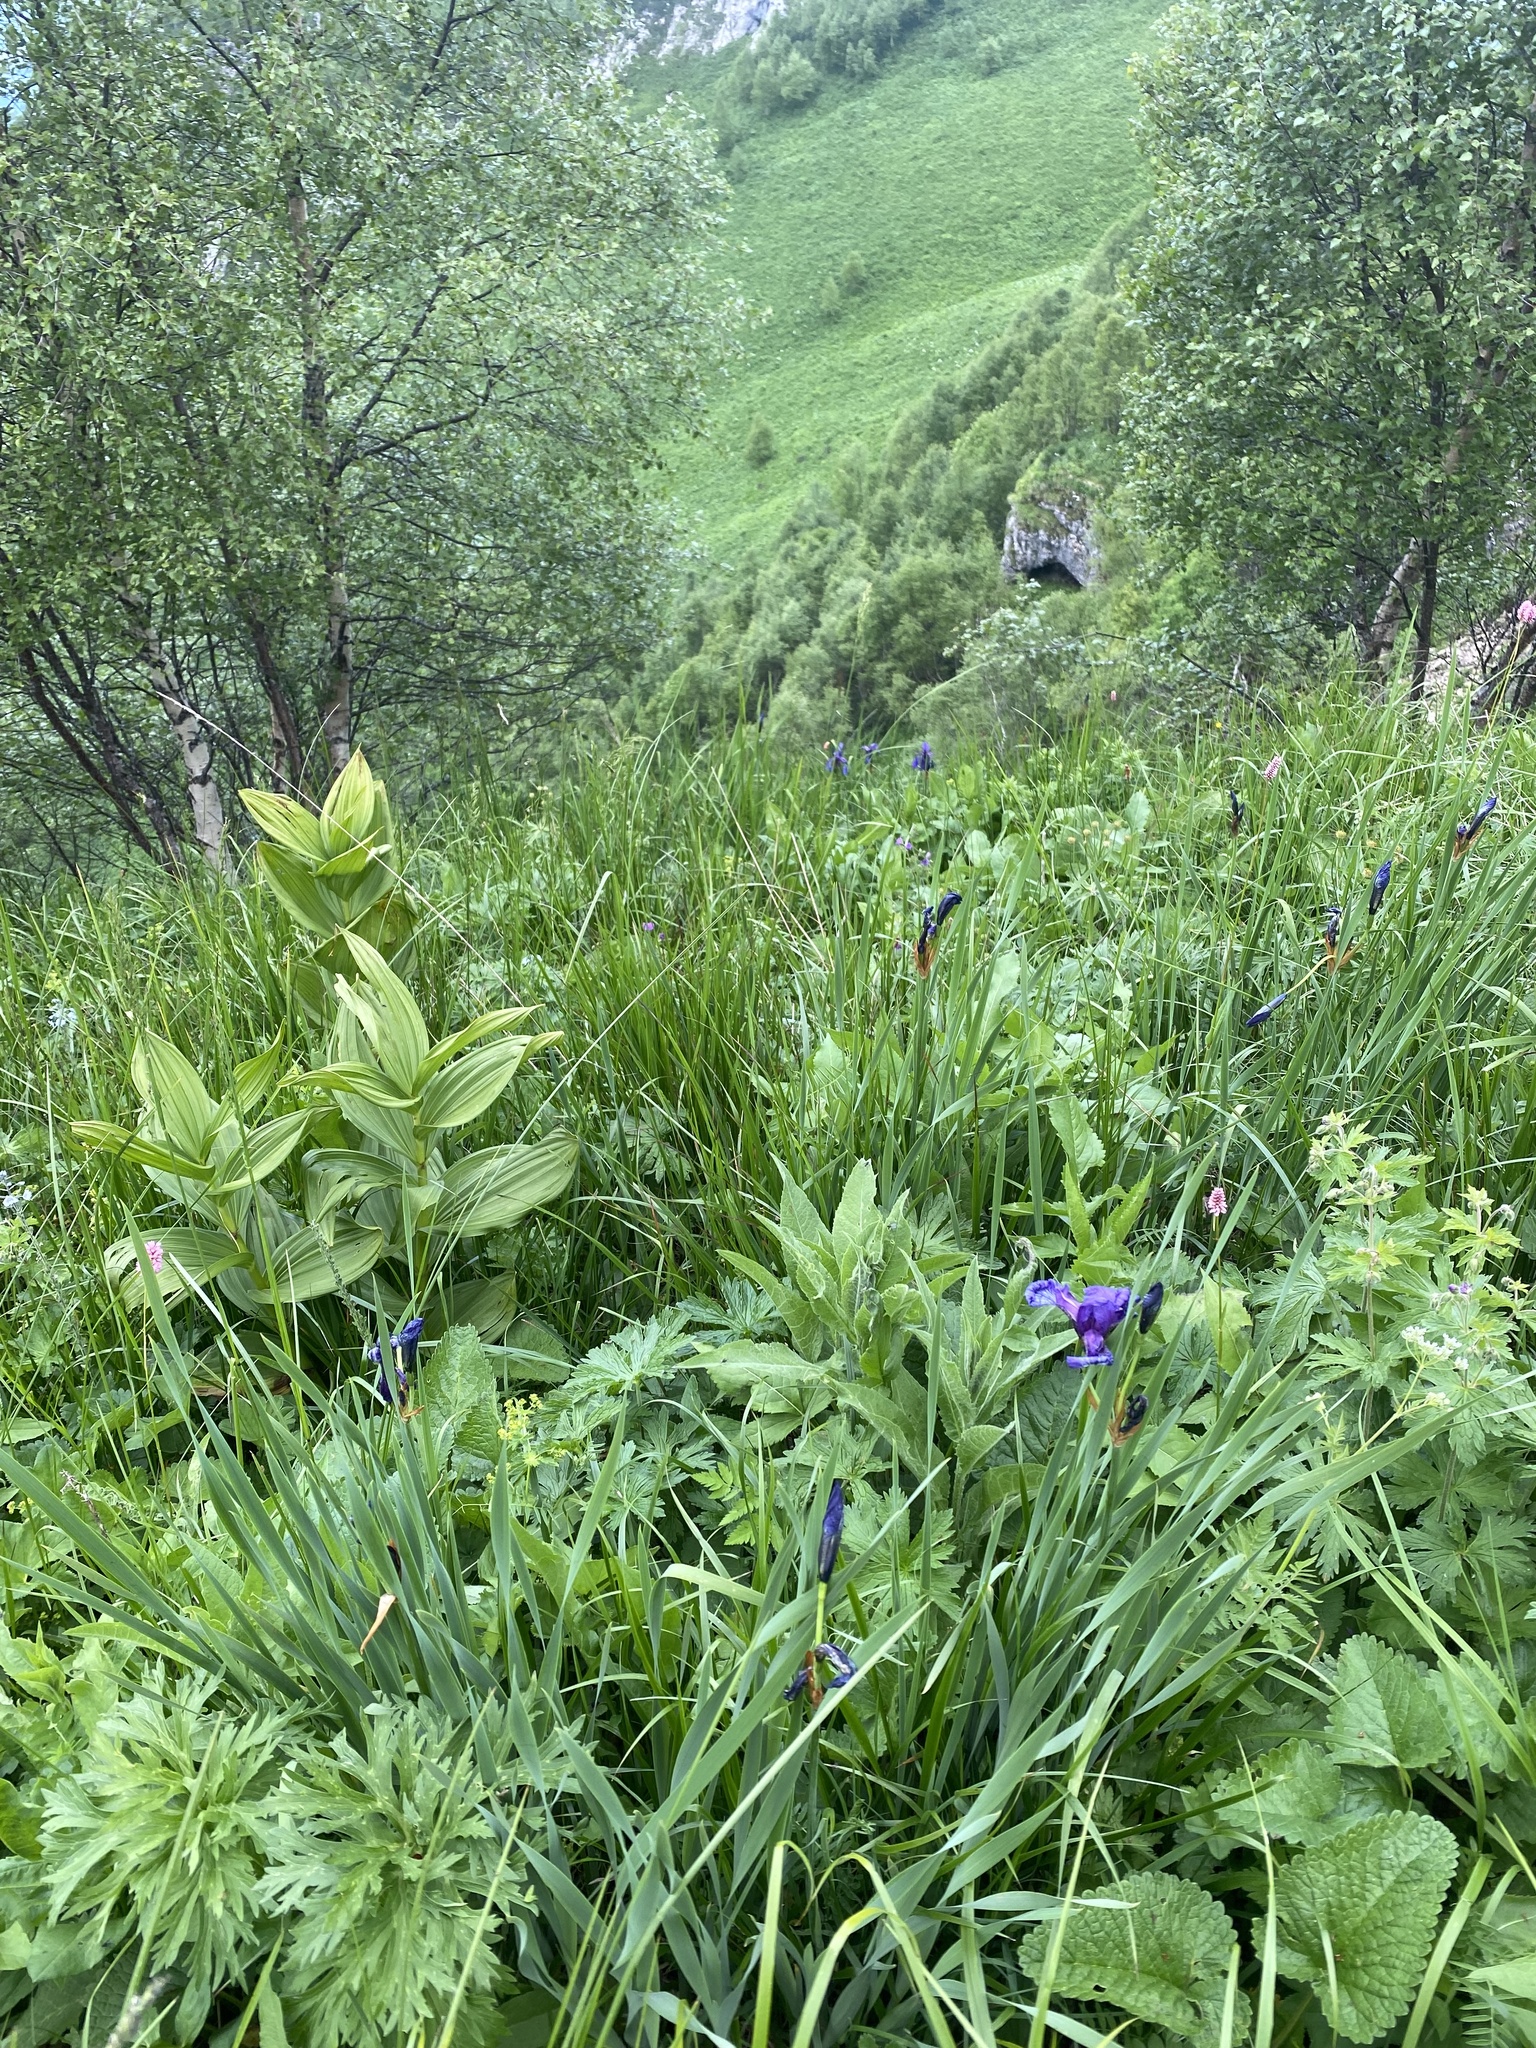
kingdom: Plantae
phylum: Tracheophyta
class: Liliopsida
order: Liliales
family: Melanthiaceae
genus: Veratrum
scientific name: Veratrum lobelianum
